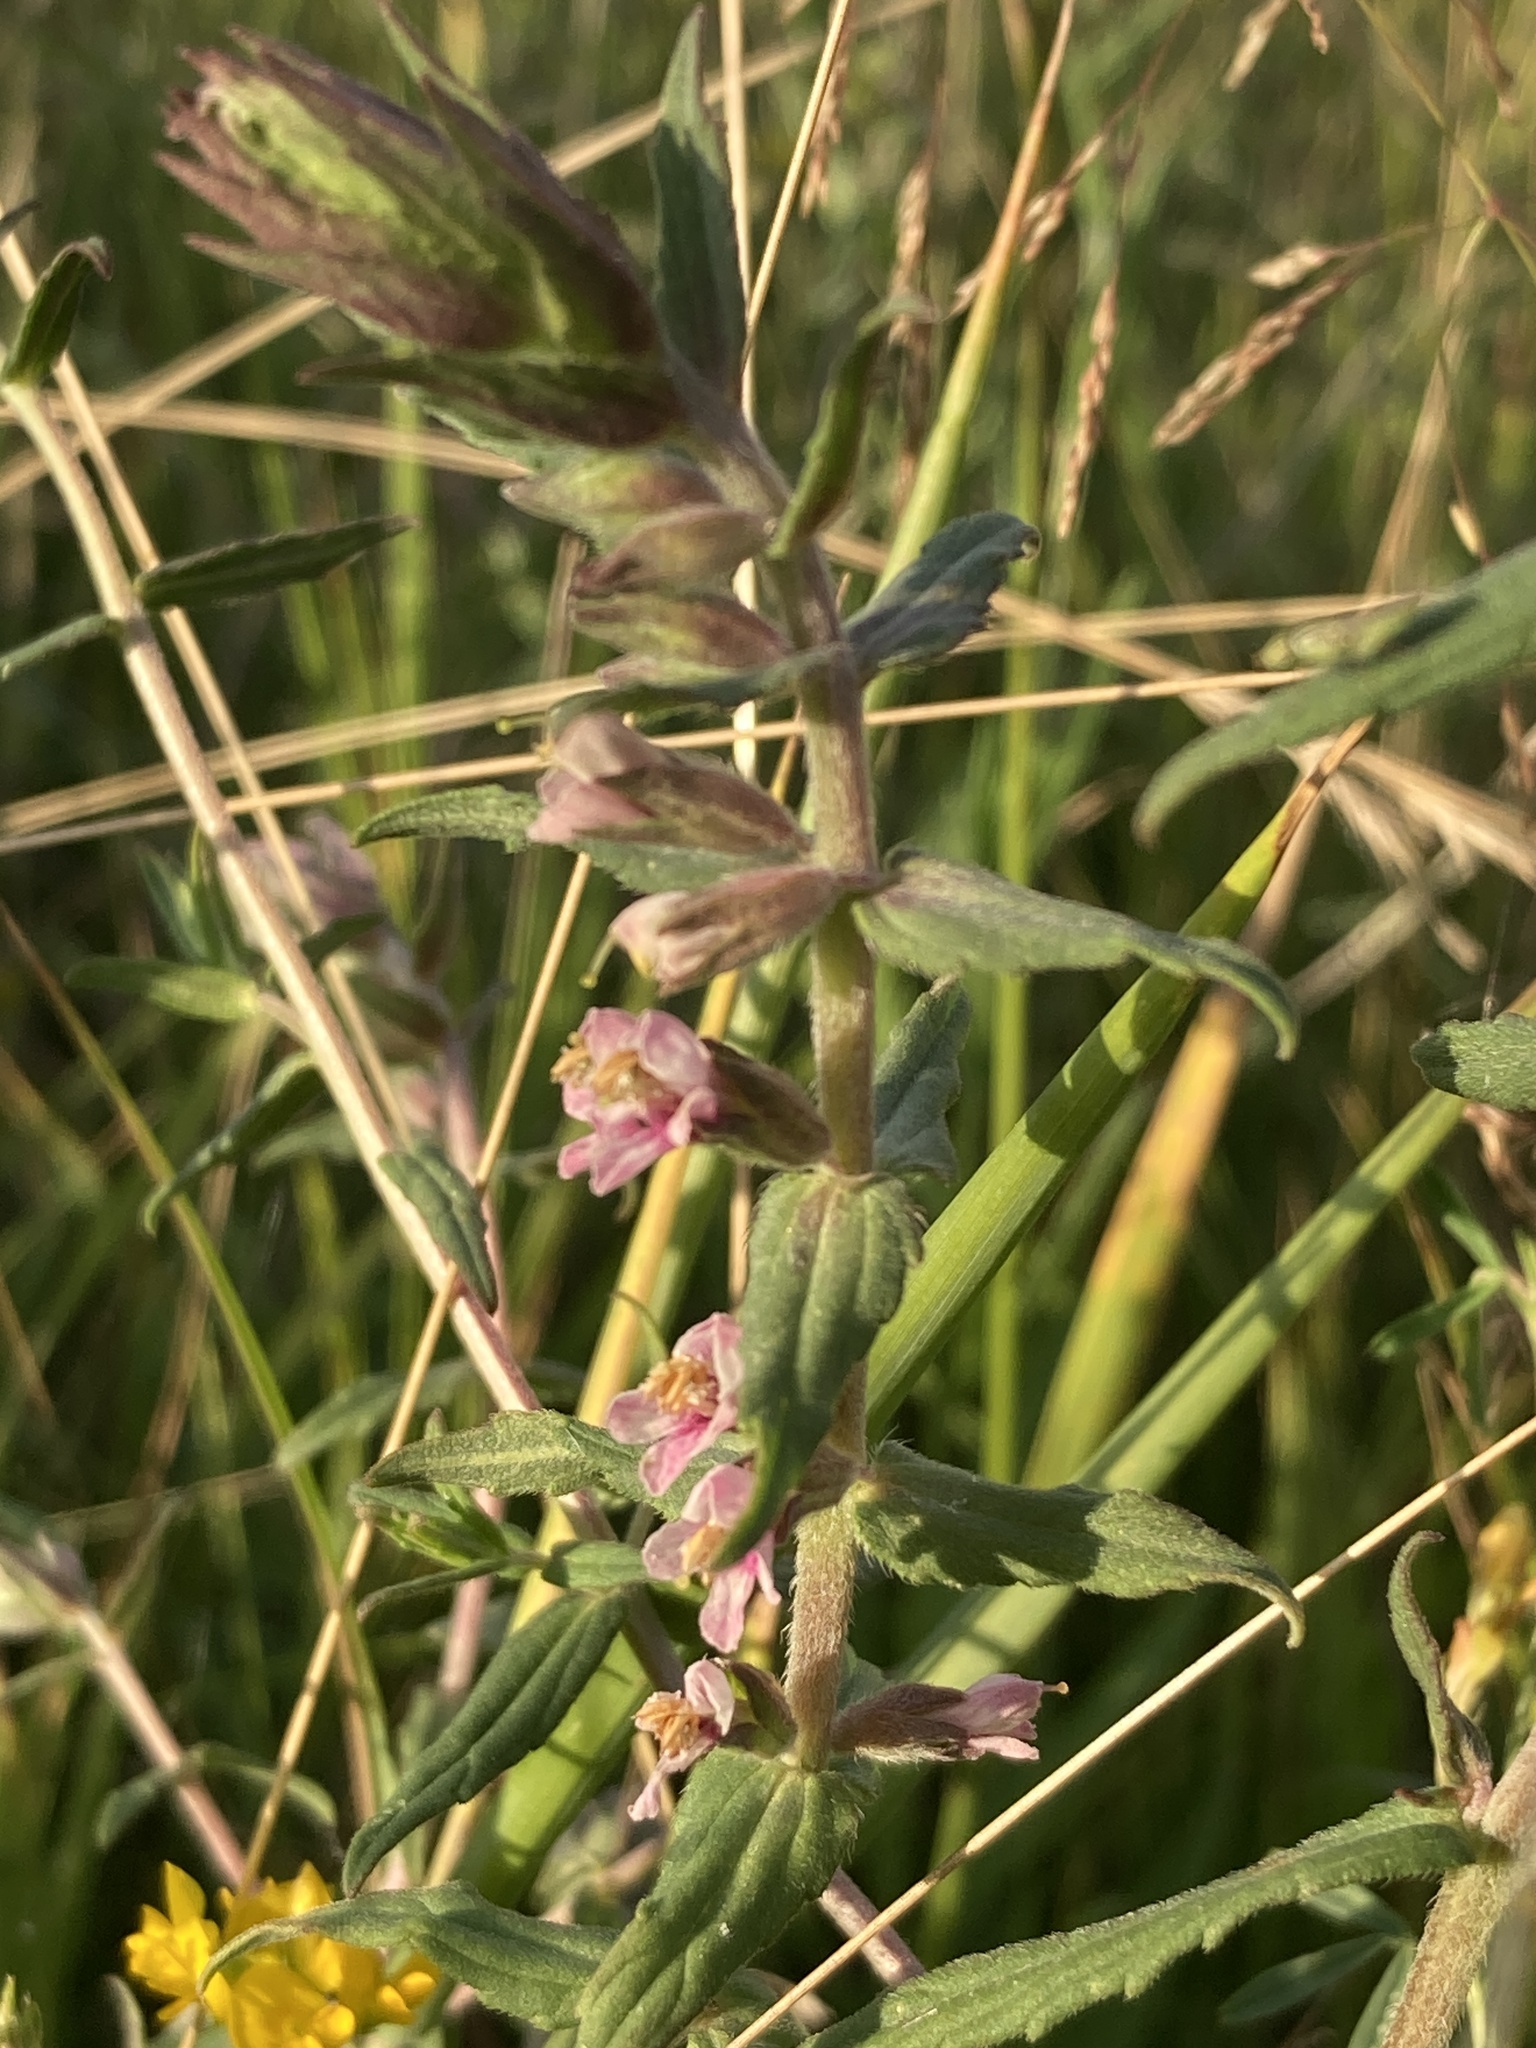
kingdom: Plantae
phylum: Tracheophyta
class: Magnoliopsida
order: Lamiales
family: Orobanchaceae
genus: Odontites
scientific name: Odontites vulgaris
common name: Broomrape
